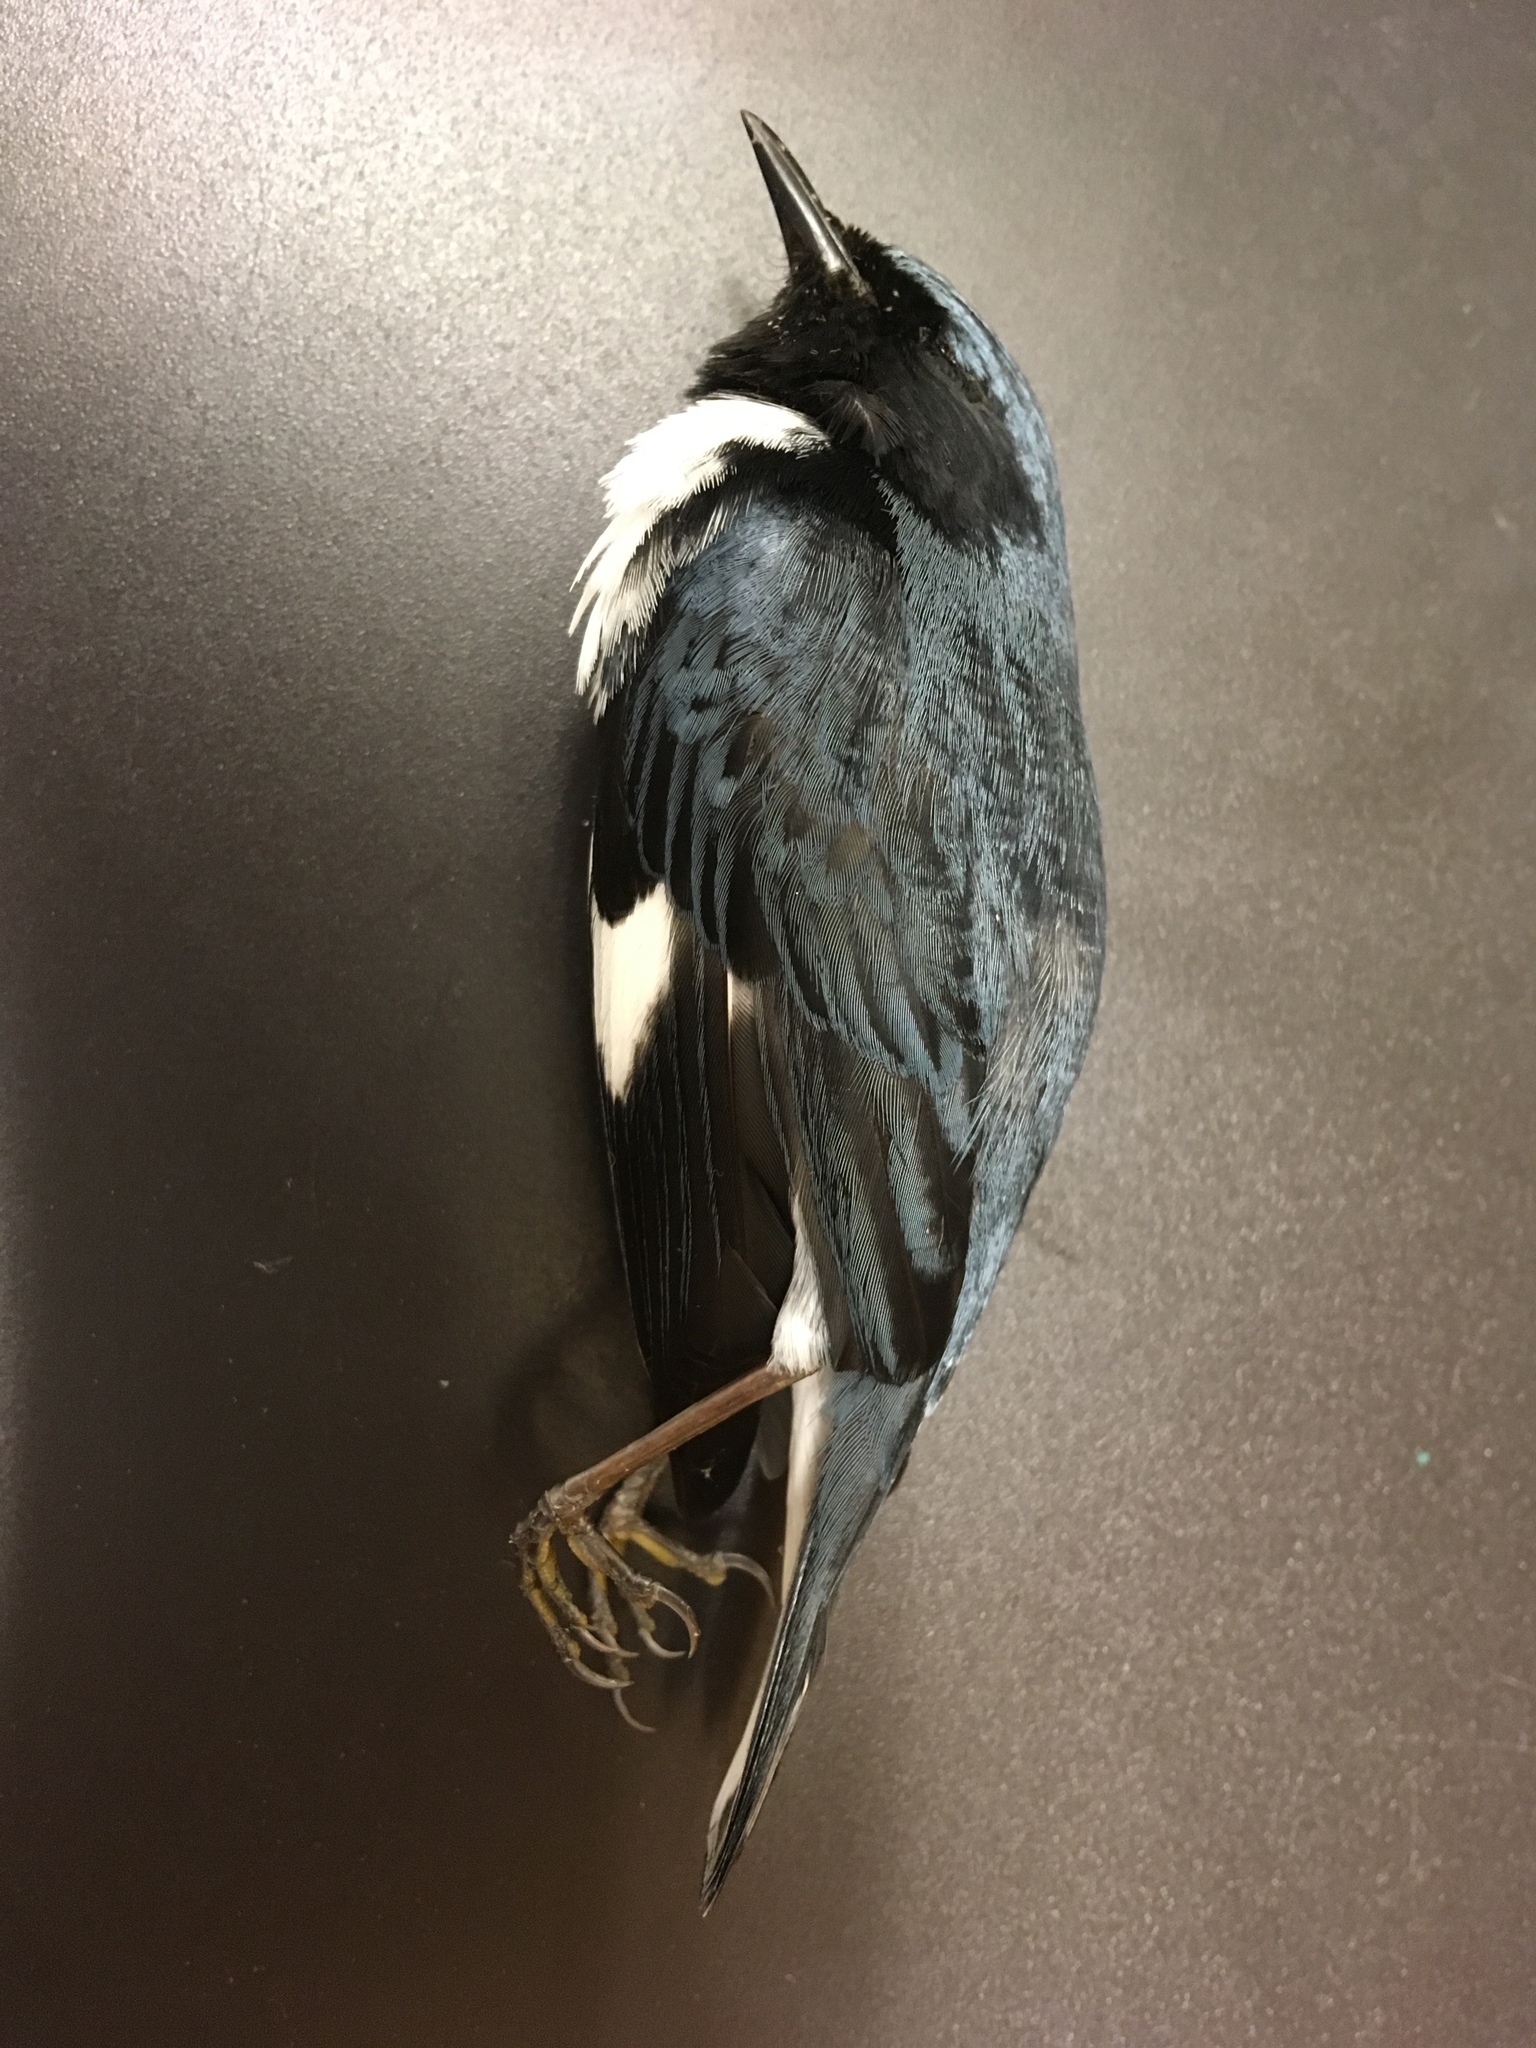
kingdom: Animalia
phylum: Chordata
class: Aves
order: Passeriformes
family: Parulidae
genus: Setophaga
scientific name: Setophaga caerulescens
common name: Black-throated blue warbler
